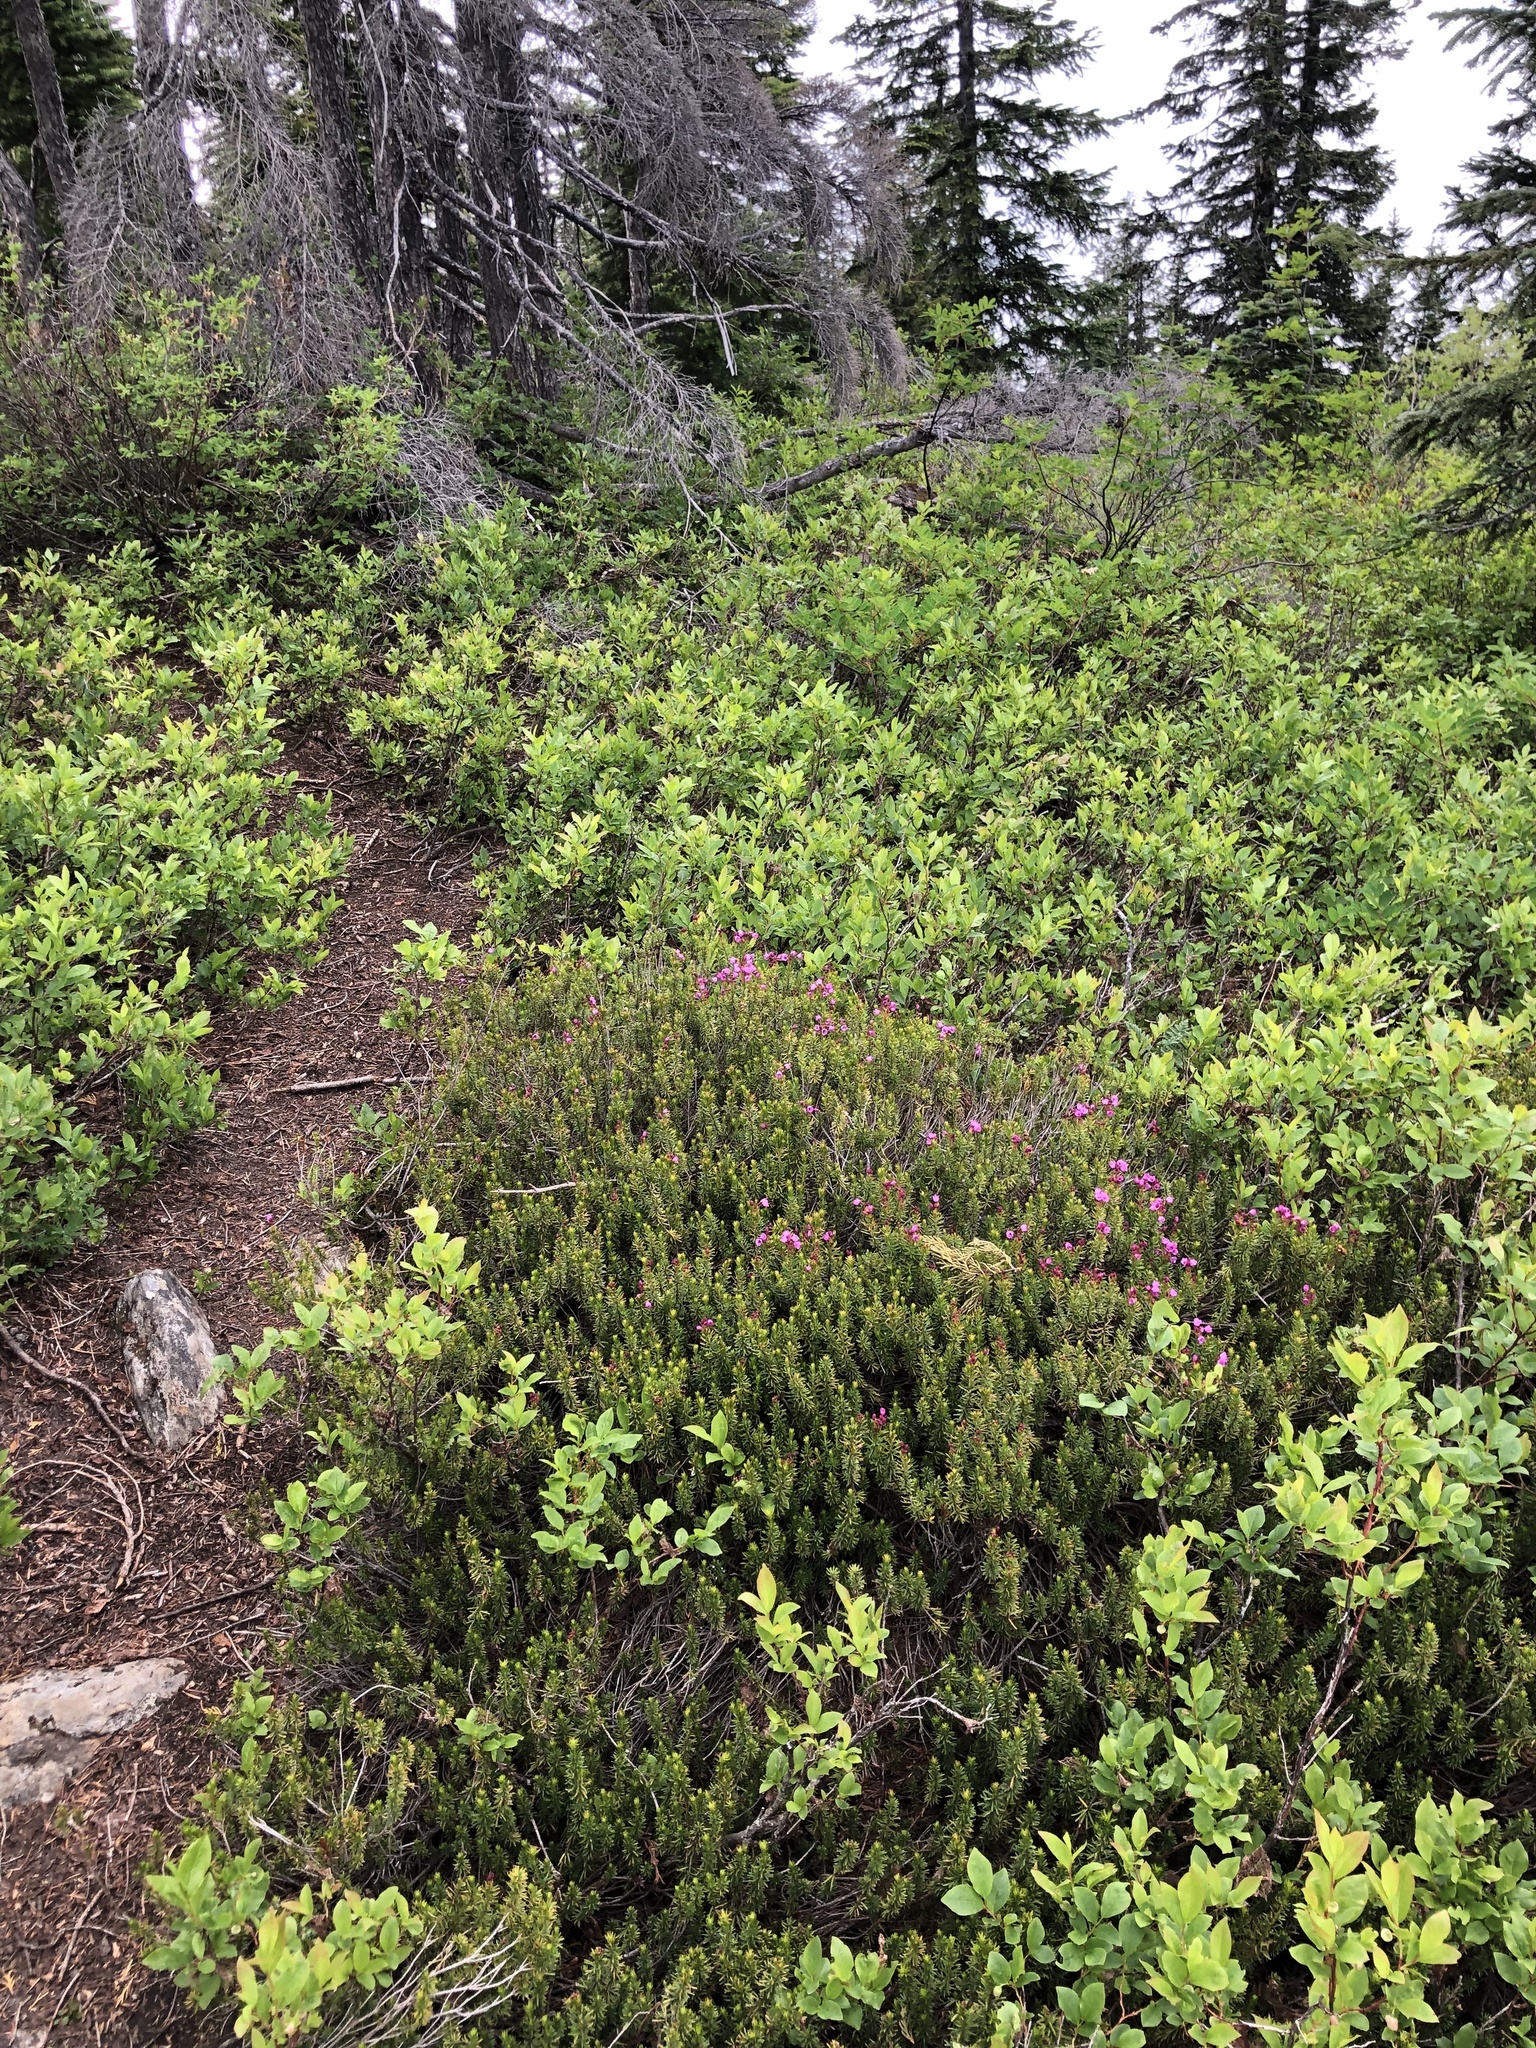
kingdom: Plantae
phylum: Tracheophyta
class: Magnoliopsida
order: Ericales
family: Ericaceae
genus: Phyllodoce
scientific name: Phyllodoce empetriformis
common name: Pink mountain heather
